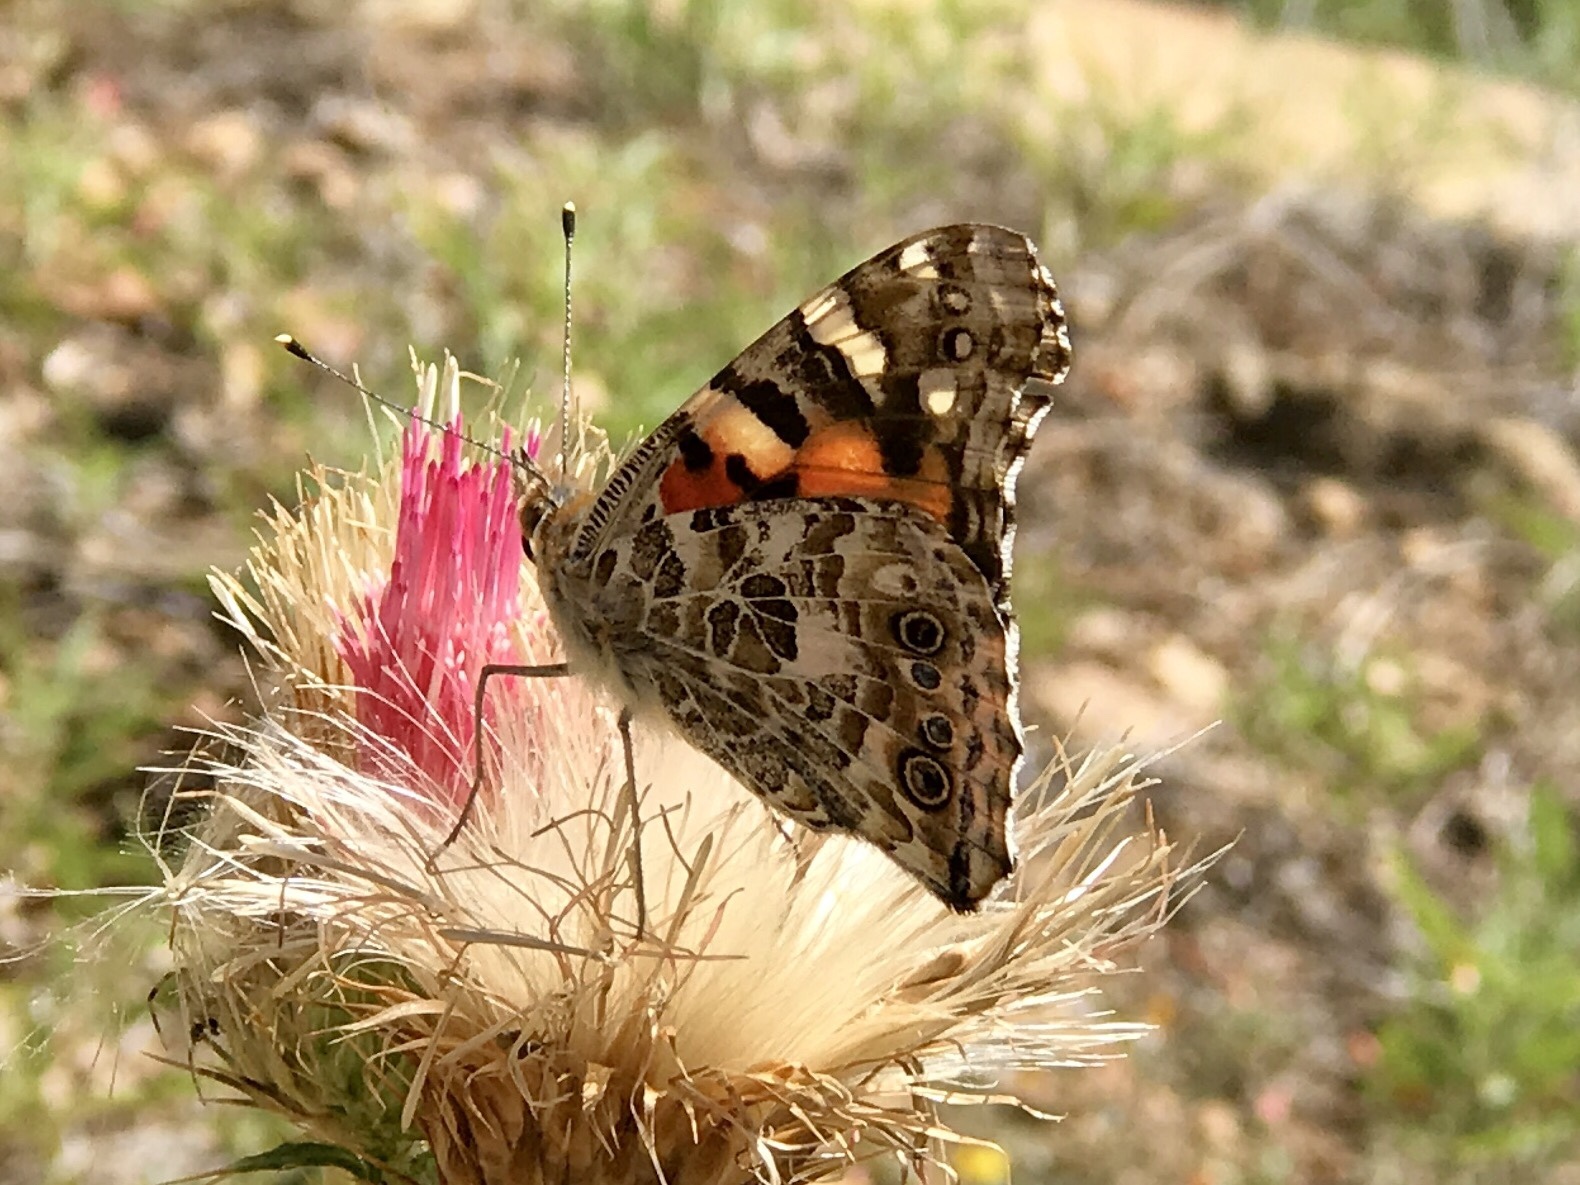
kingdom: Animalia
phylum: Arthropoda
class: Insecta
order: Lepidoptera
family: Nymphalidae
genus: Vanessa
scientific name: Vanessa cardui
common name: Painted lady
